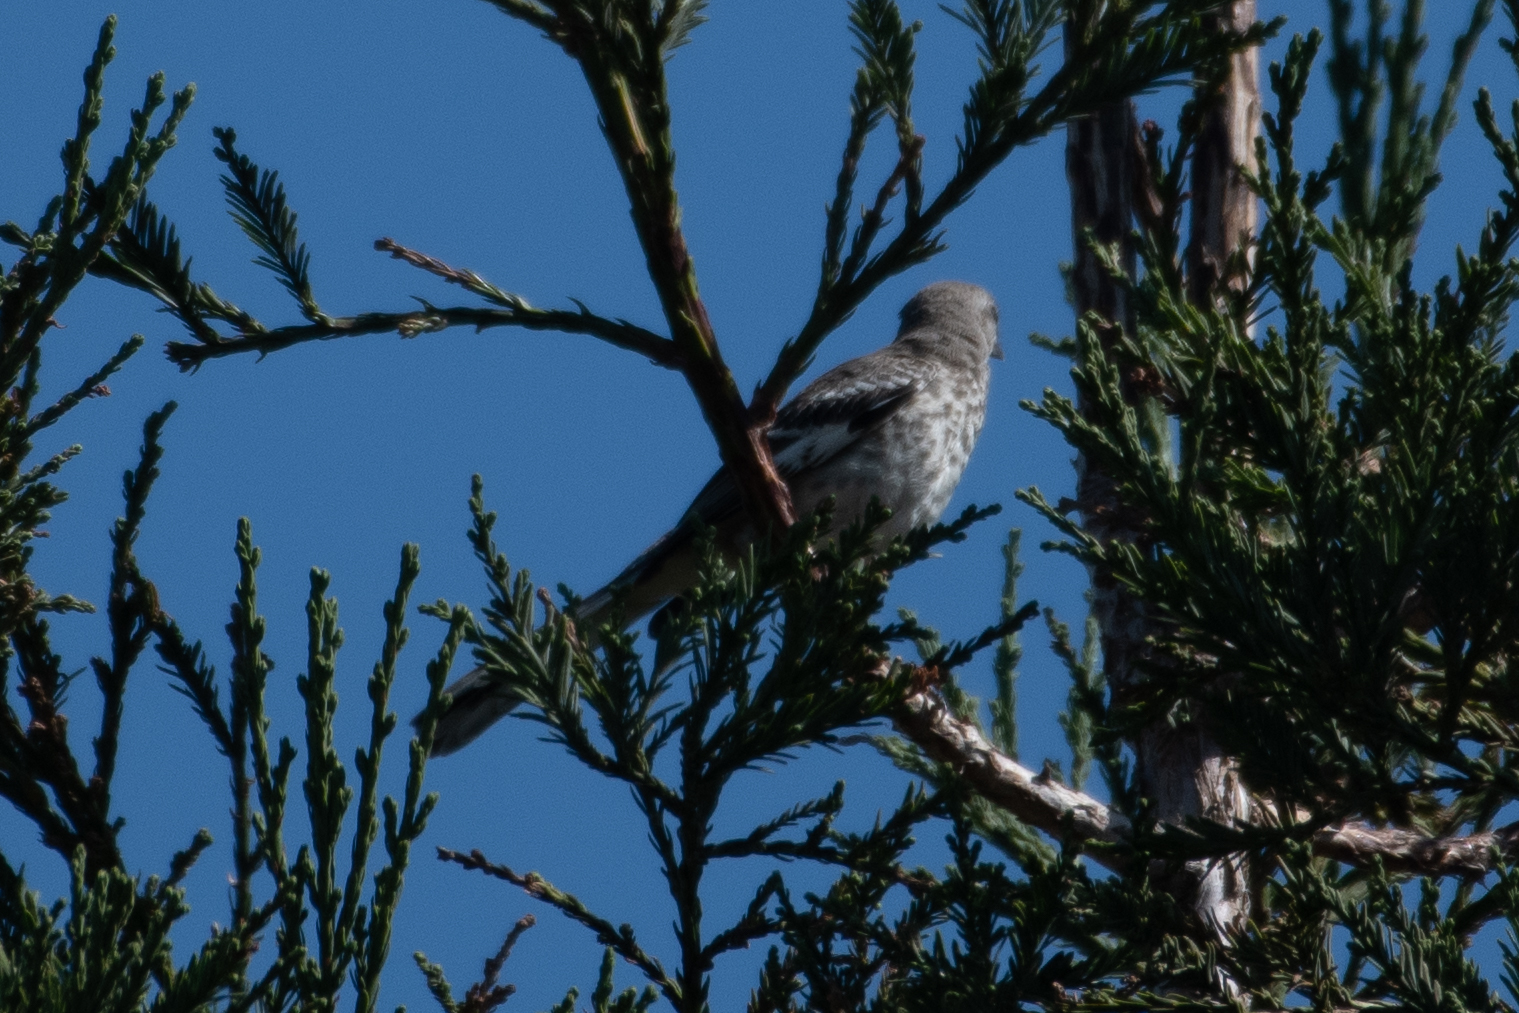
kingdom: Animalia
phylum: Chordata
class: Aves
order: Passeriformes
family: Mimidae
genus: Mimus
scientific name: Mimus polyglottos
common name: Northern mockingbird
